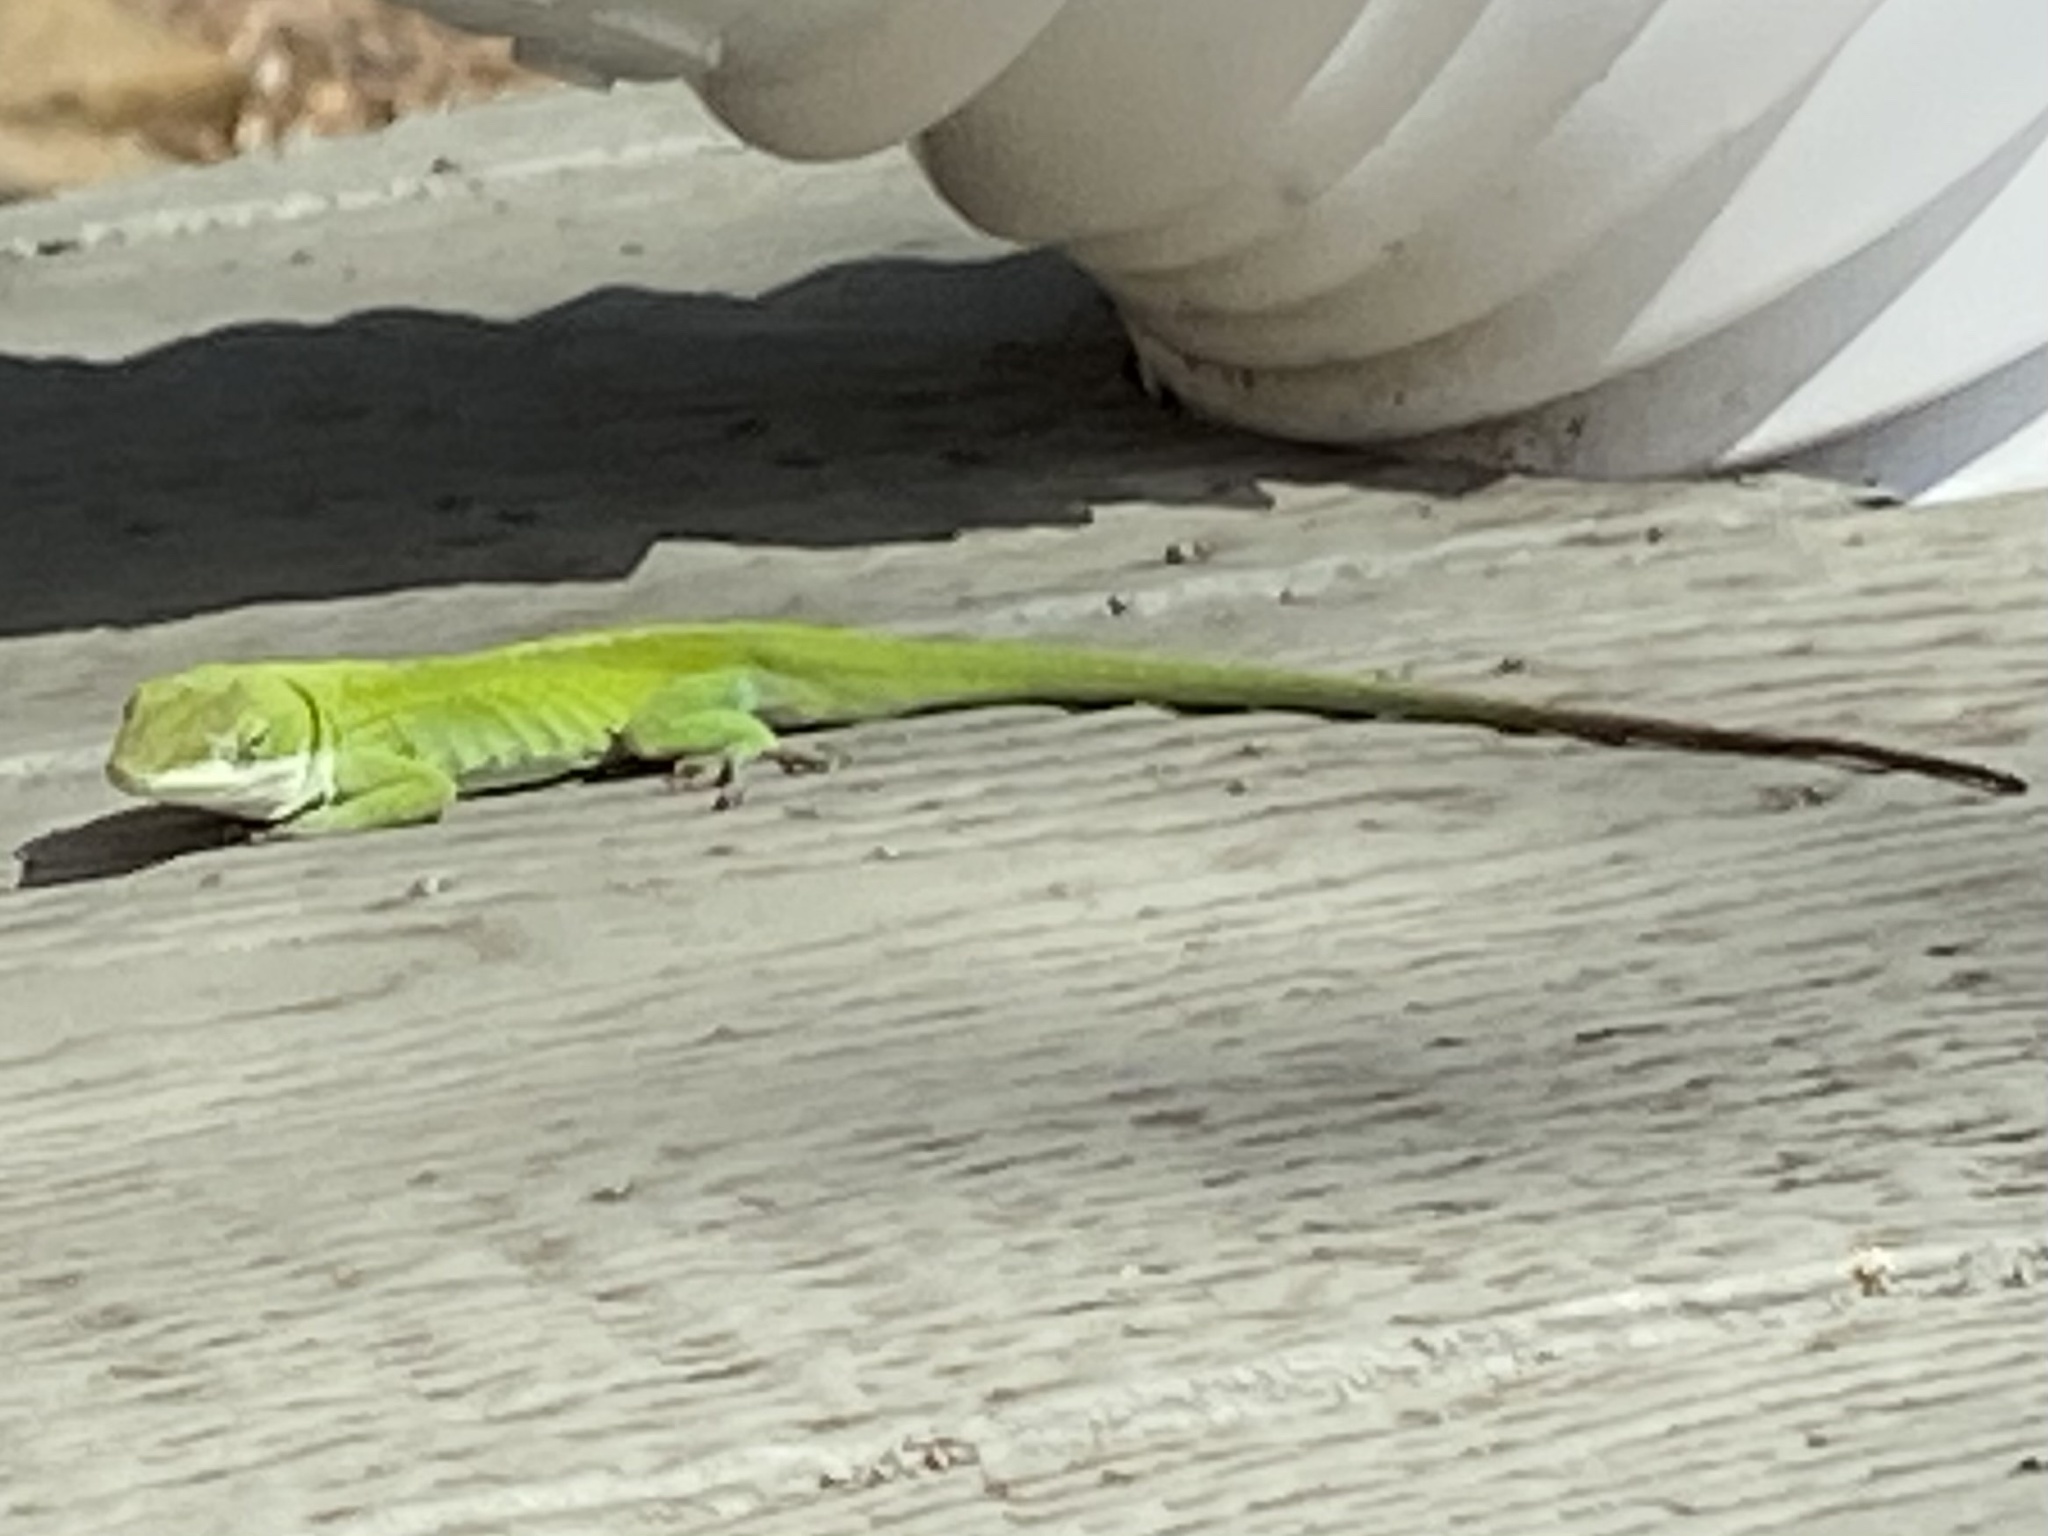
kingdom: Animalia
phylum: Chordata
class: Squamata
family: Dactyloidae
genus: Anolis
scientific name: Anolis carolinensis
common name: Green anole
